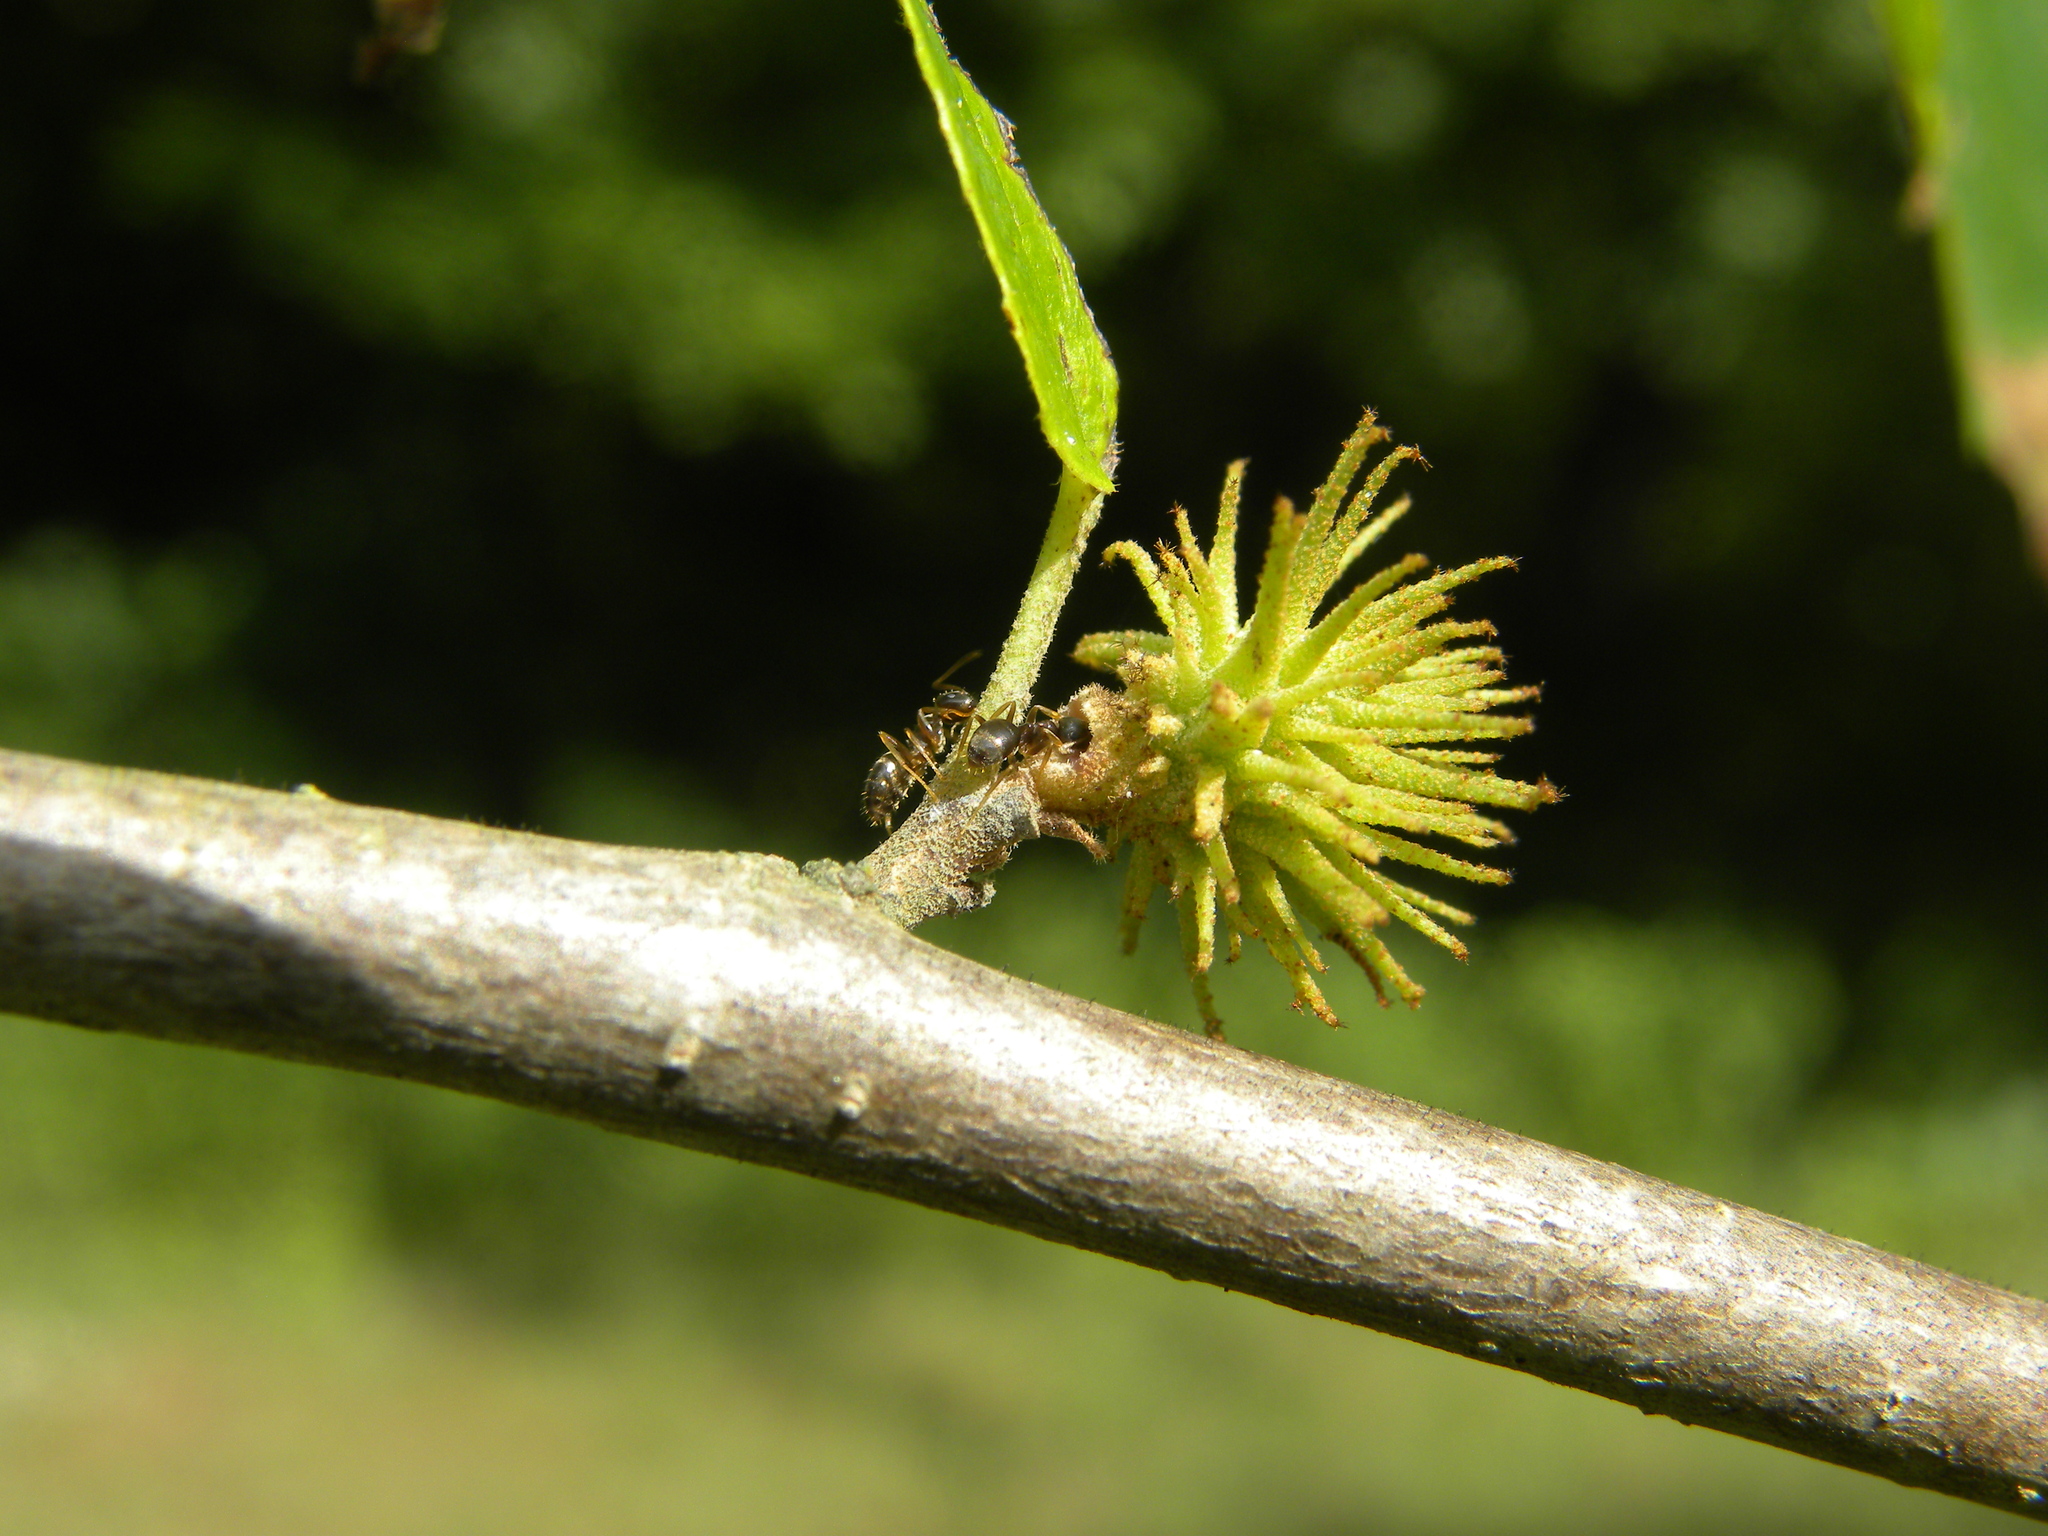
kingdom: Animalia
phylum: Arthropoda
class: Insecta
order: Hemiptera
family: Aphididae
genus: Hamamelistes
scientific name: Hamamelistes spinosus
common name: Witch hazel gall aphid
